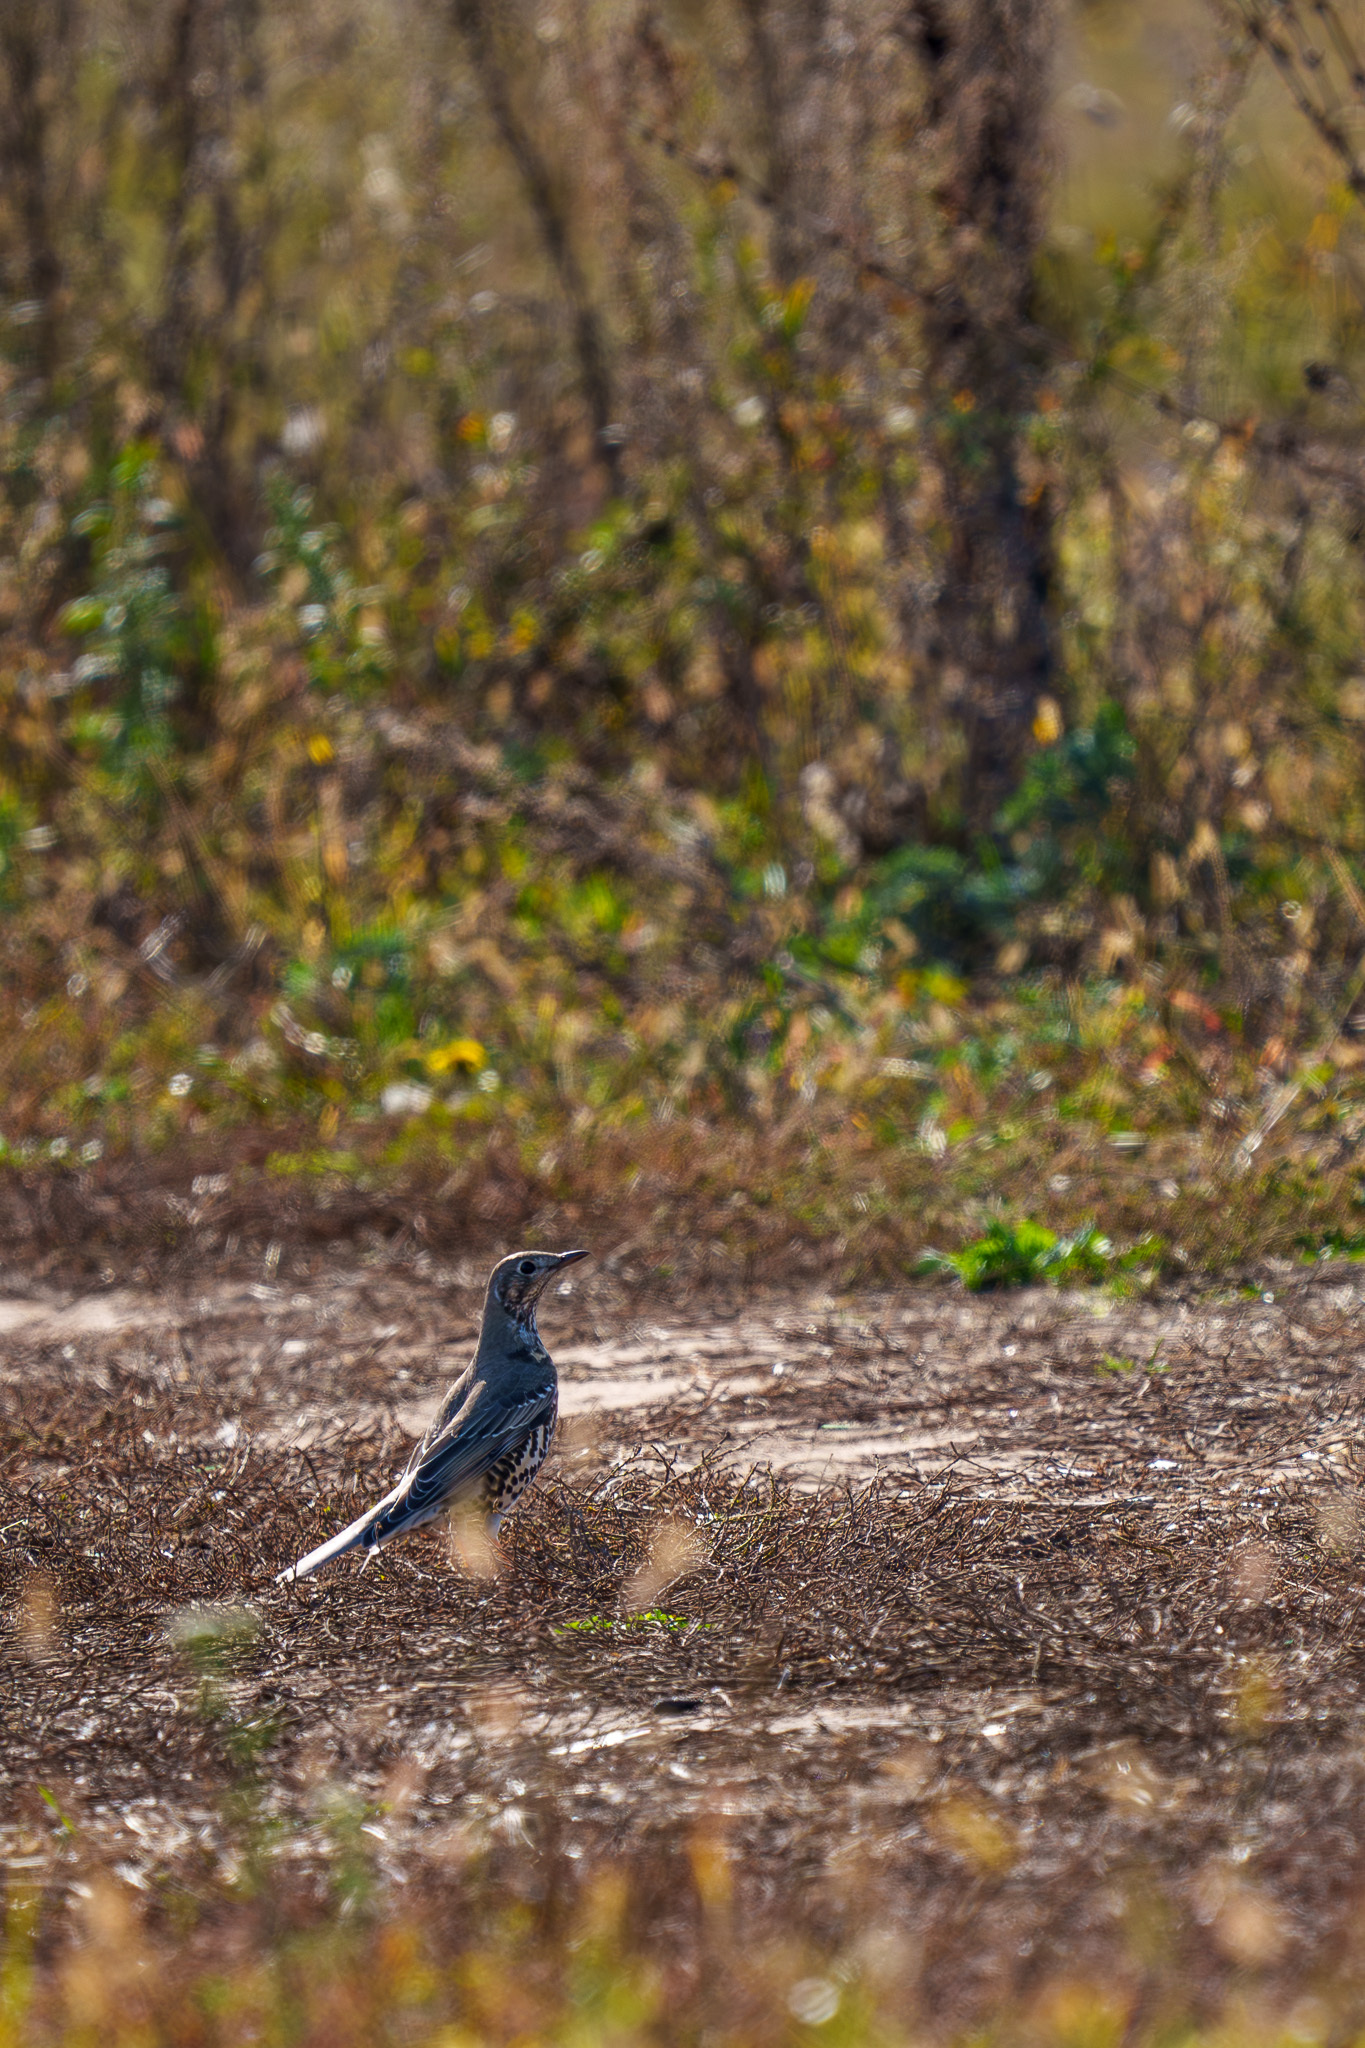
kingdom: Animalia
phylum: Chordata
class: Aves
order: Passeriformes
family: Turdidae
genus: Turdus
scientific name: Turdus viscivorus
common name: Mistle thrush
